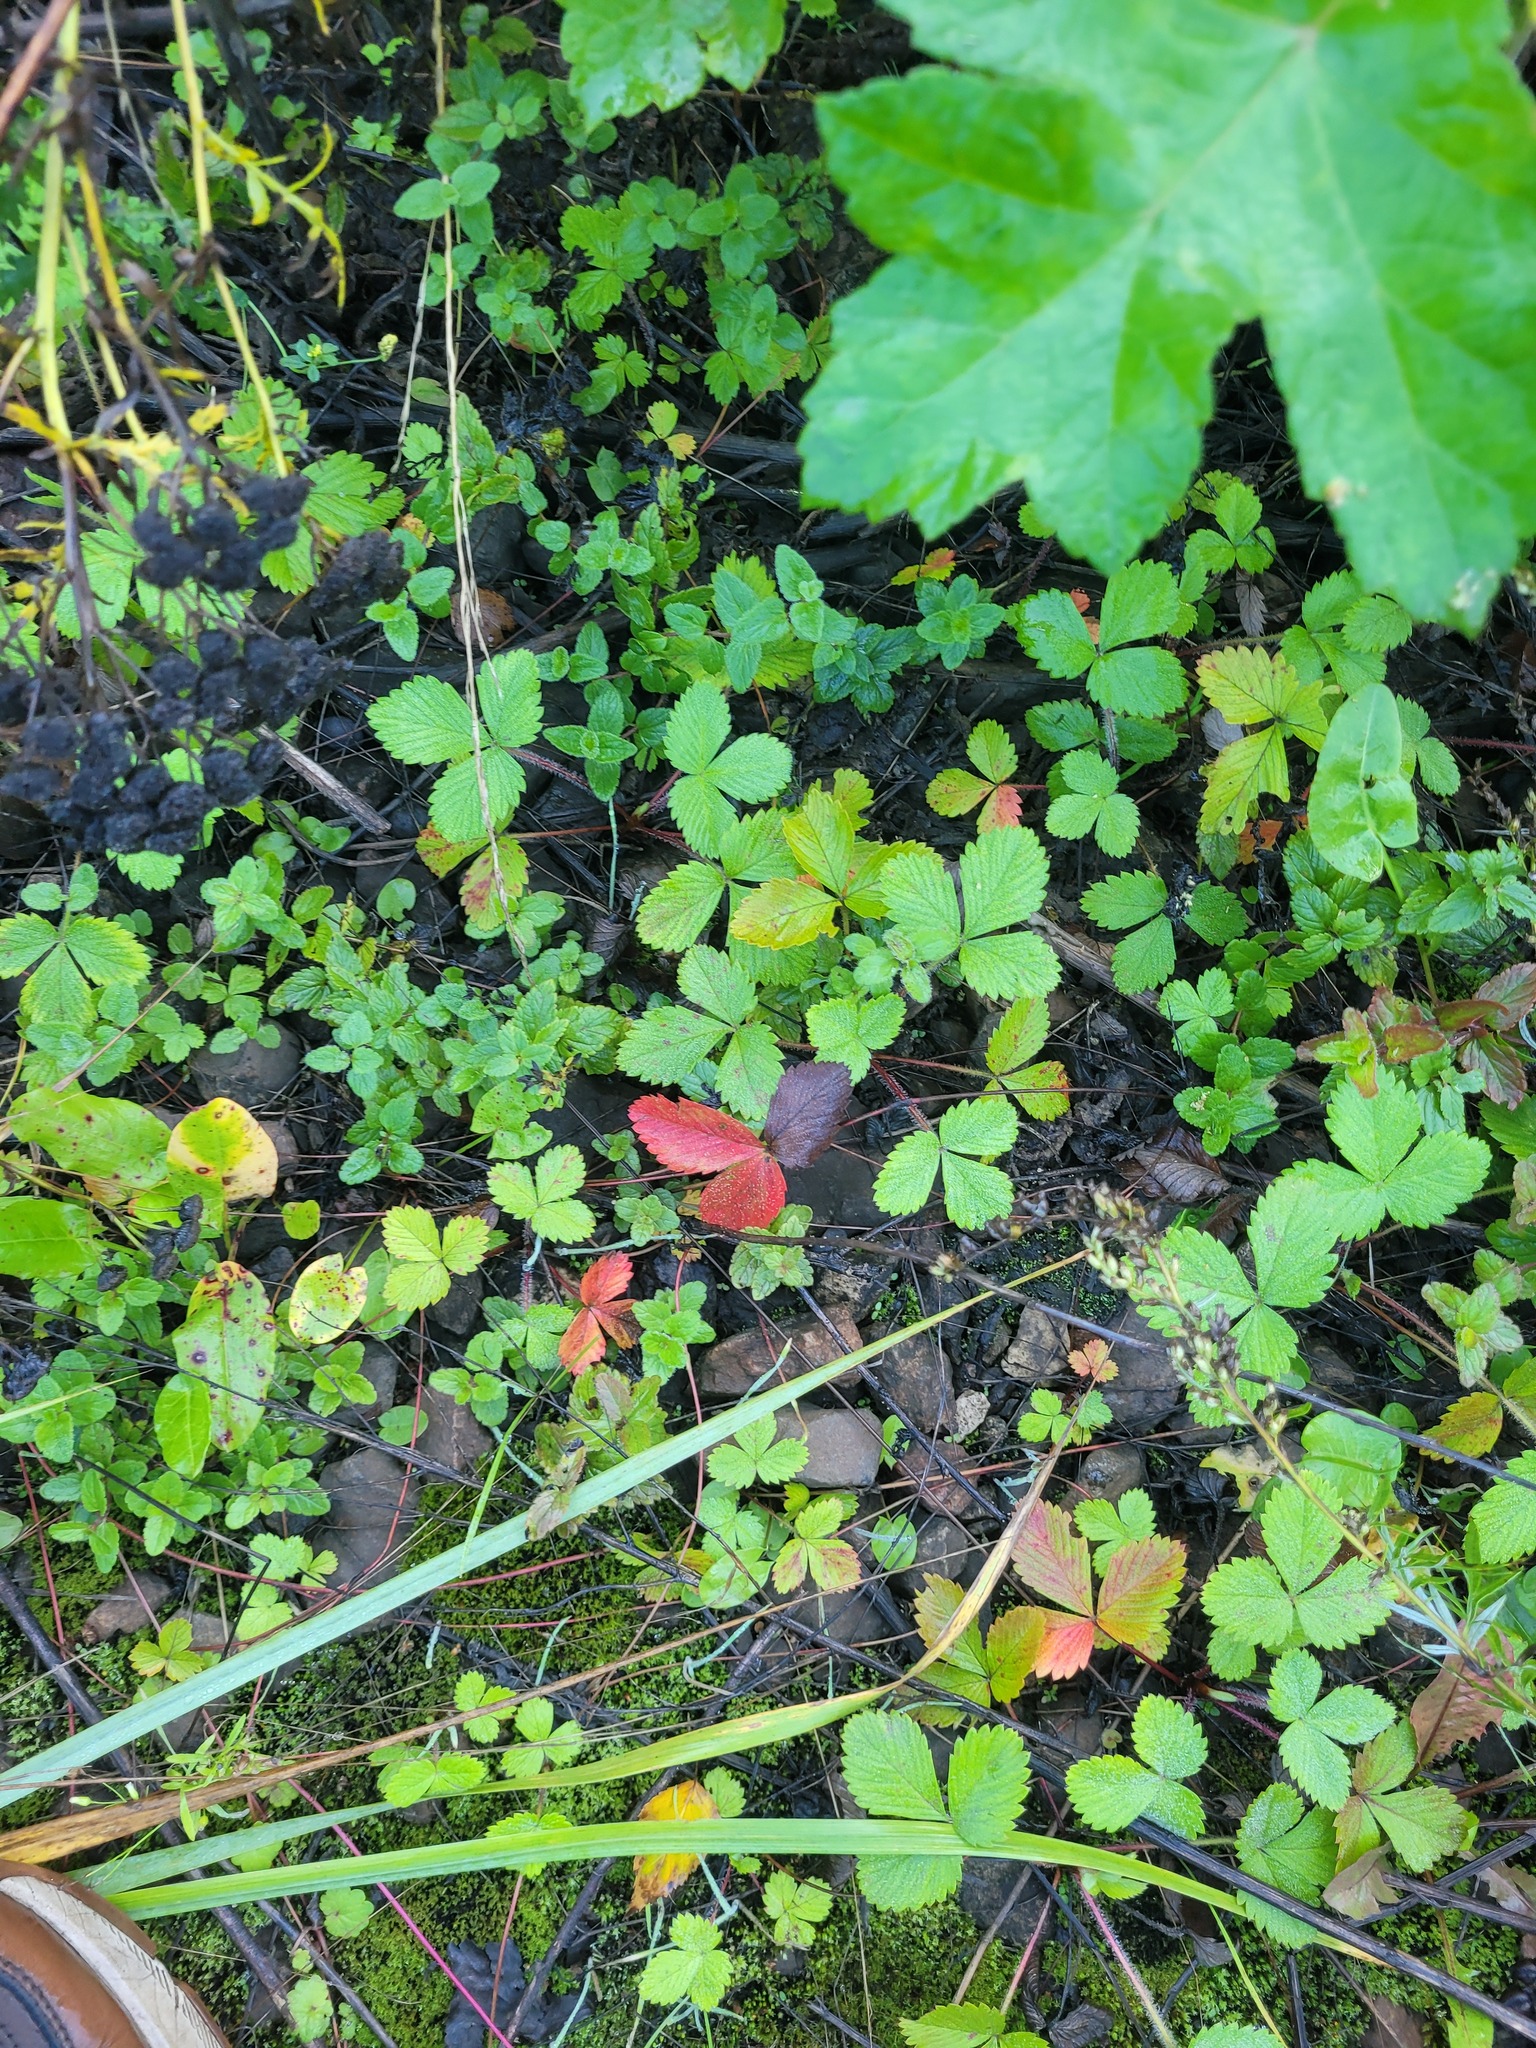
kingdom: Plantae
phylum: Tracheophyta
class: Magnoliopsida
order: Rosales
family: Rosaceae
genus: Fragaria
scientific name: Fragaria vesca
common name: Wild strawberry
